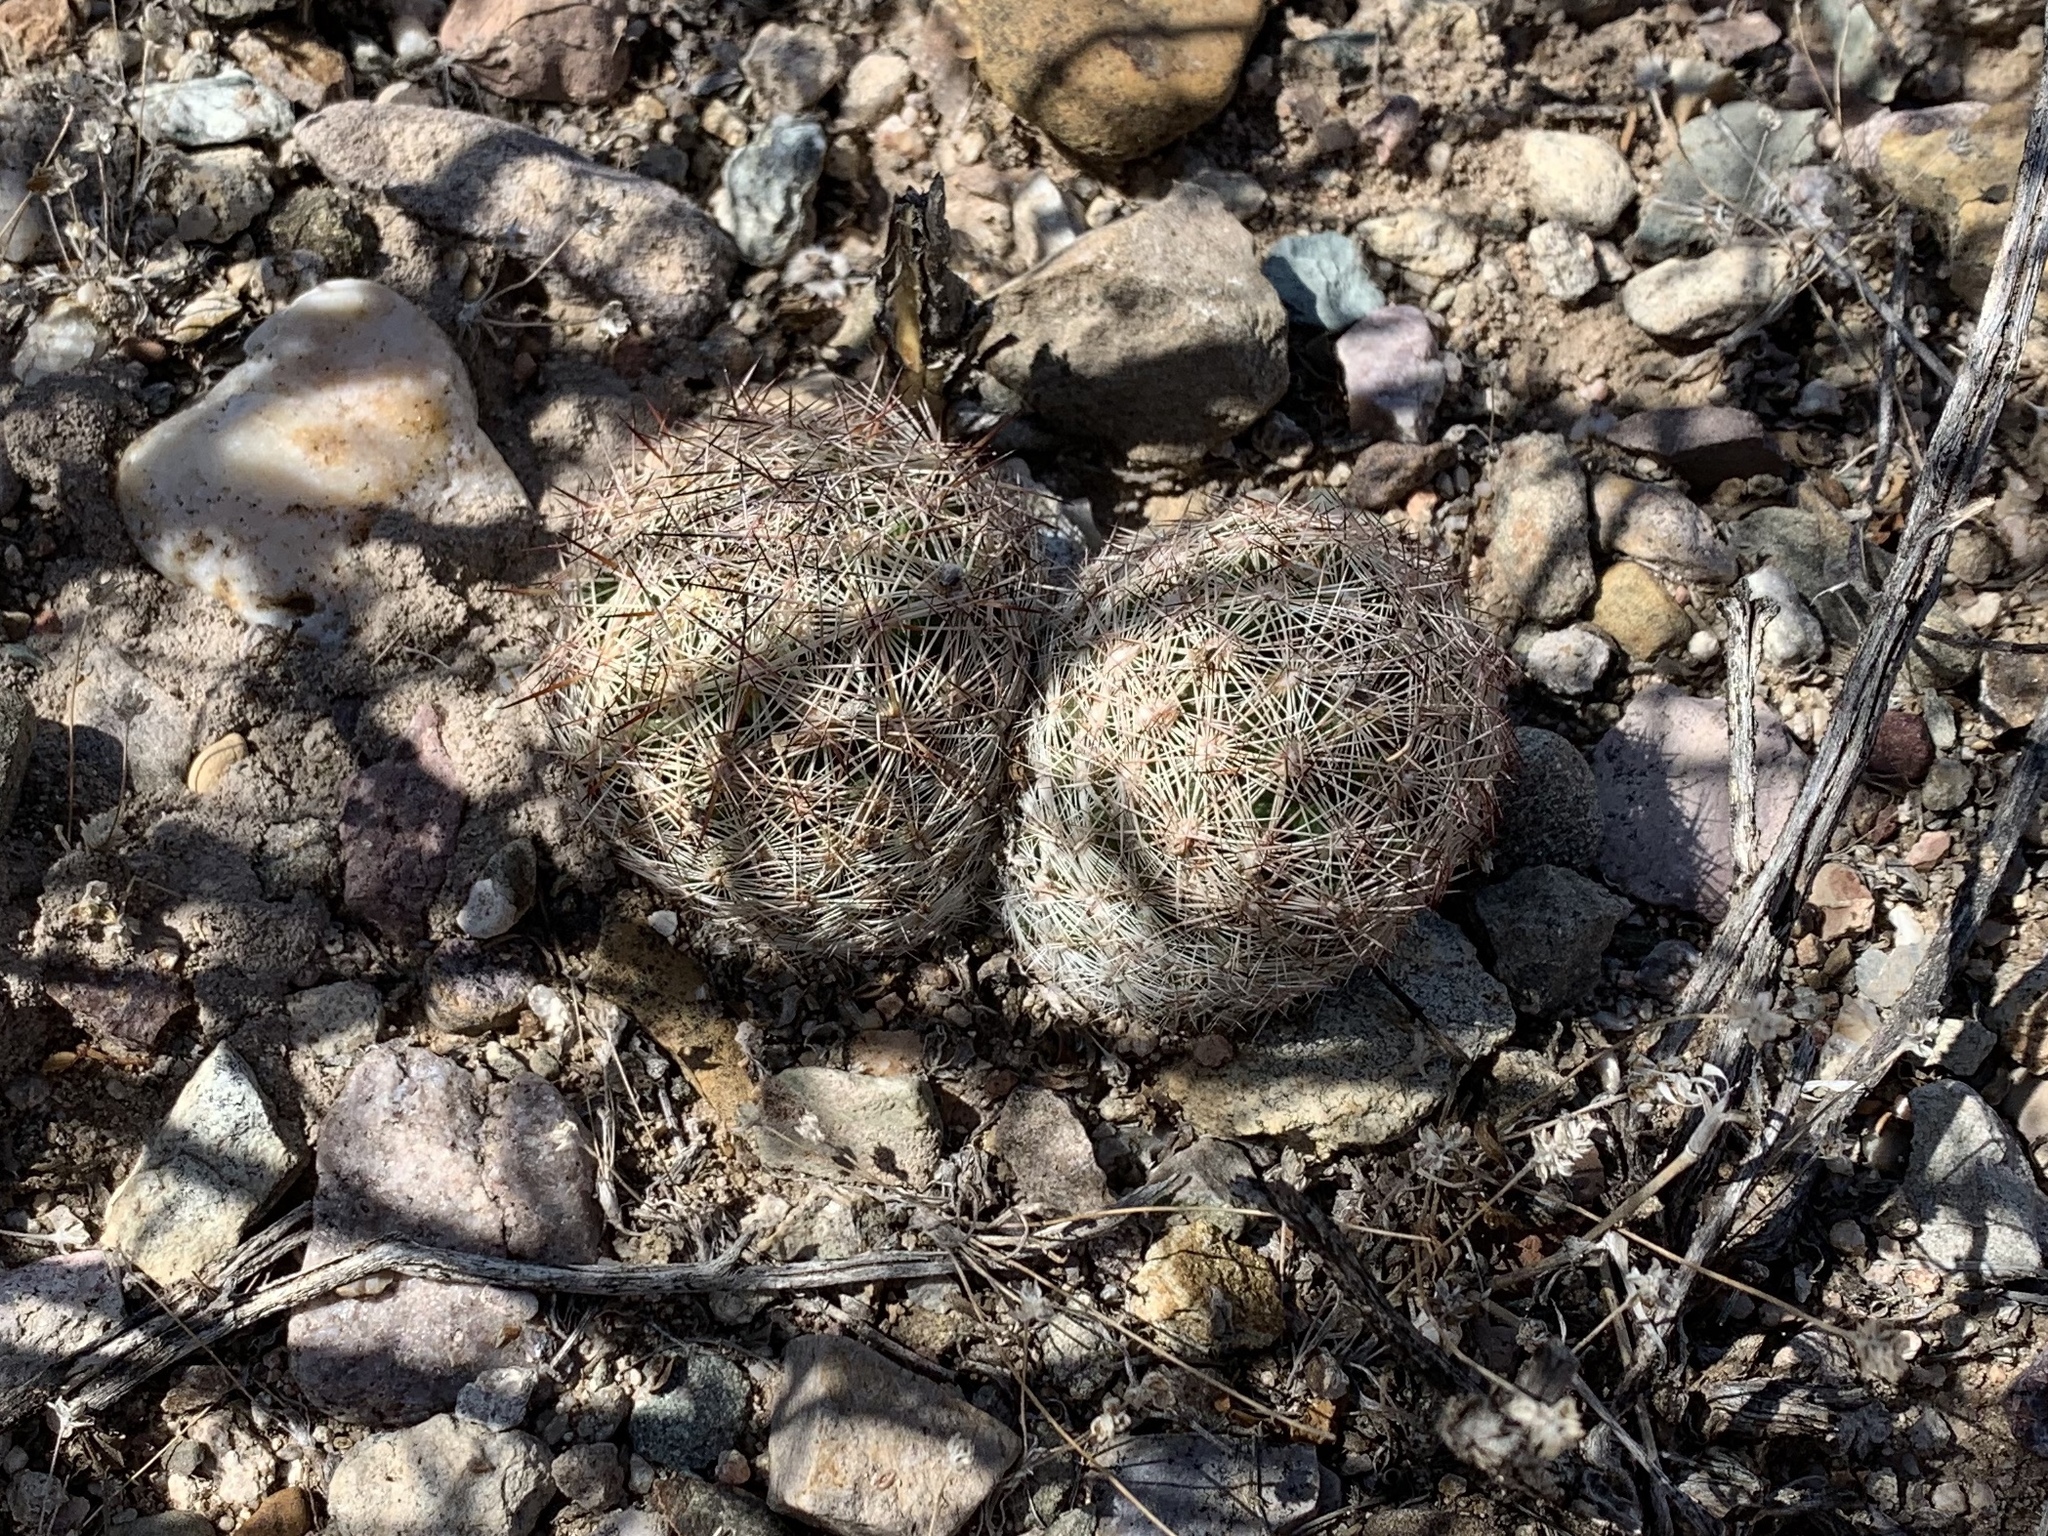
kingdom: Plantae
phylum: Tracheophyta
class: Magnoliopsida
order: Caryophyllales
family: Cactaceae
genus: Pelecyphora
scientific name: Pelecyphora vivipara
